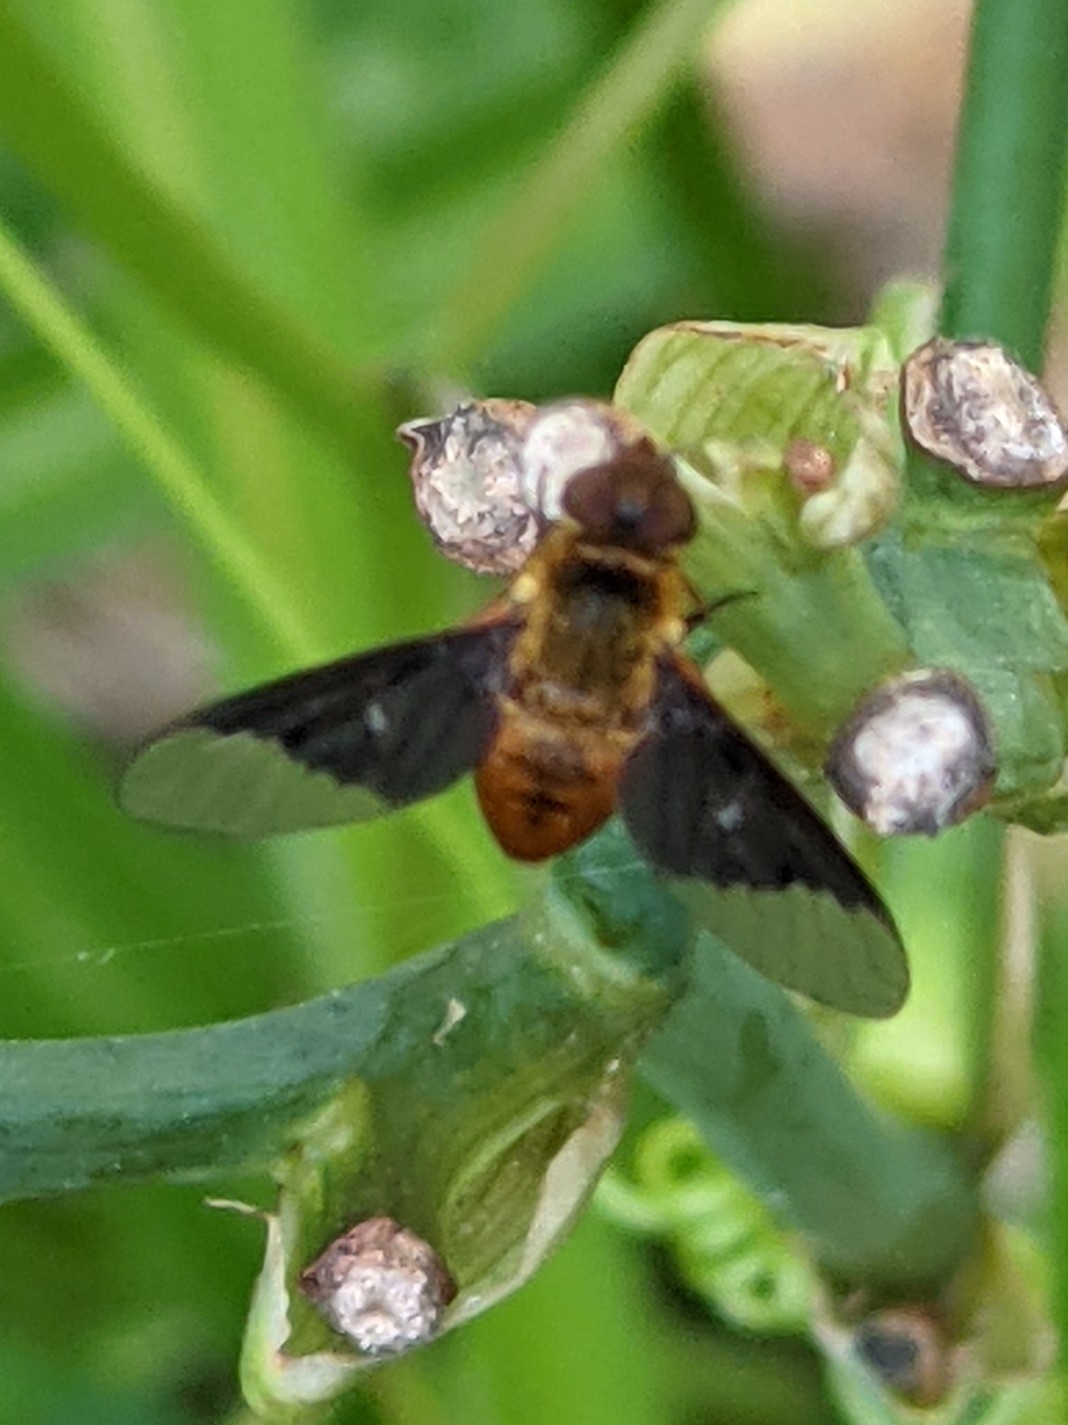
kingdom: Animalia
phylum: Arthropoda
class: Insecta
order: Diptera
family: Bombyliidae
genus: Chrysanthrax
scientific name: Chrysanthrax cypris
